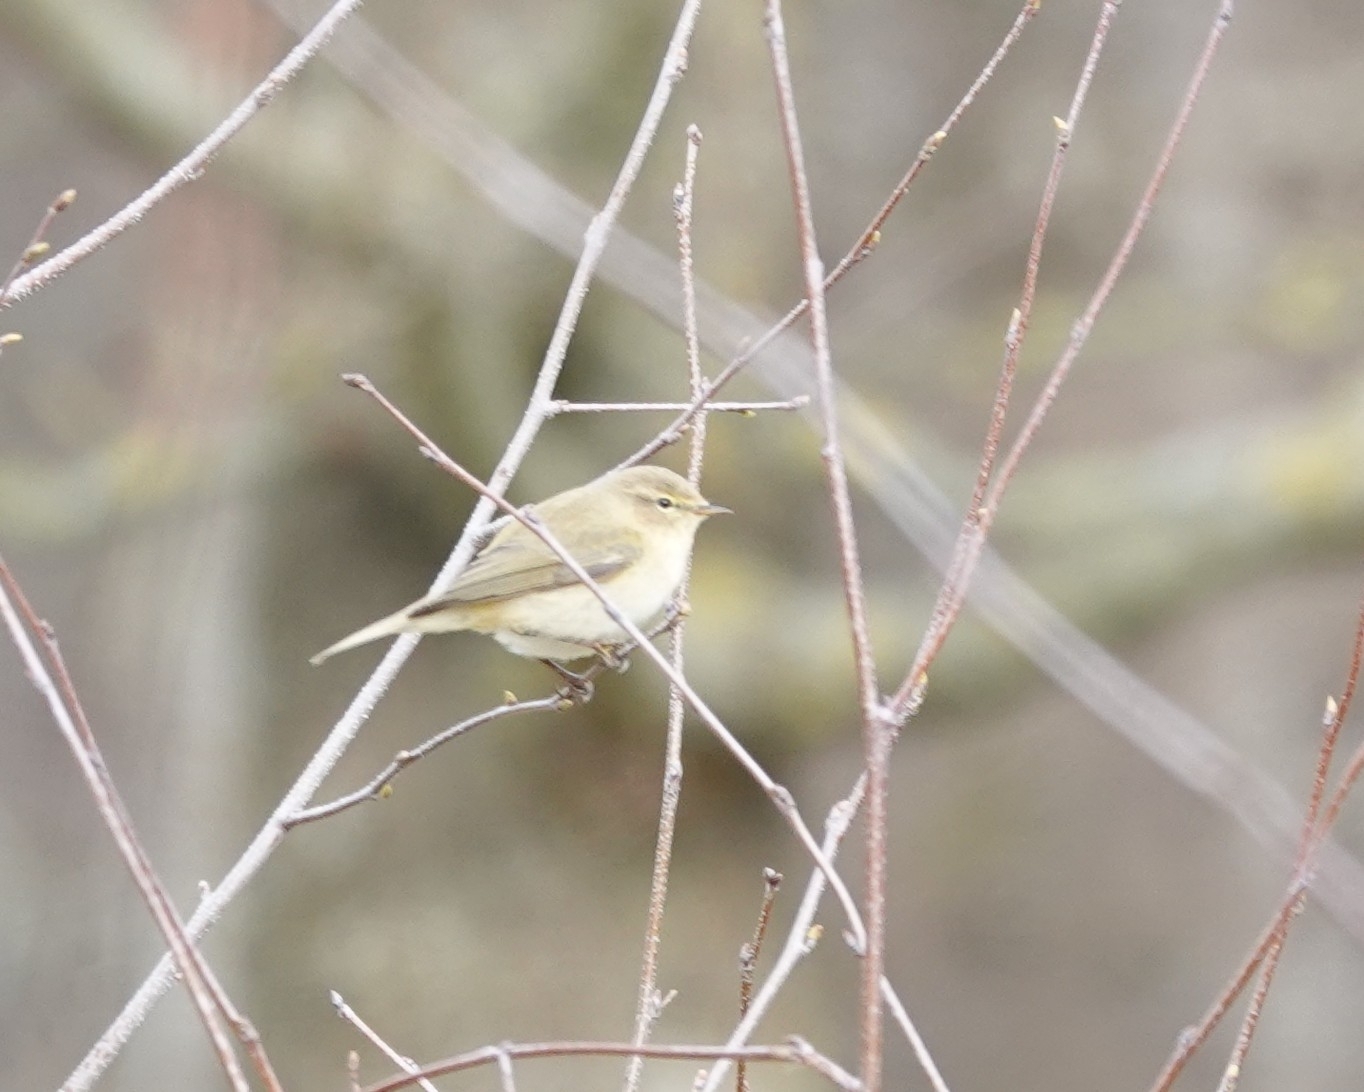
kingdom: Animalia
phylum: Chordata
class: Aves
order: Passeriformes
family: Phylloscopidae
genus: Phylloscopus
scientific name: Phylloscopus collybita
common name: Common chiffchaff
